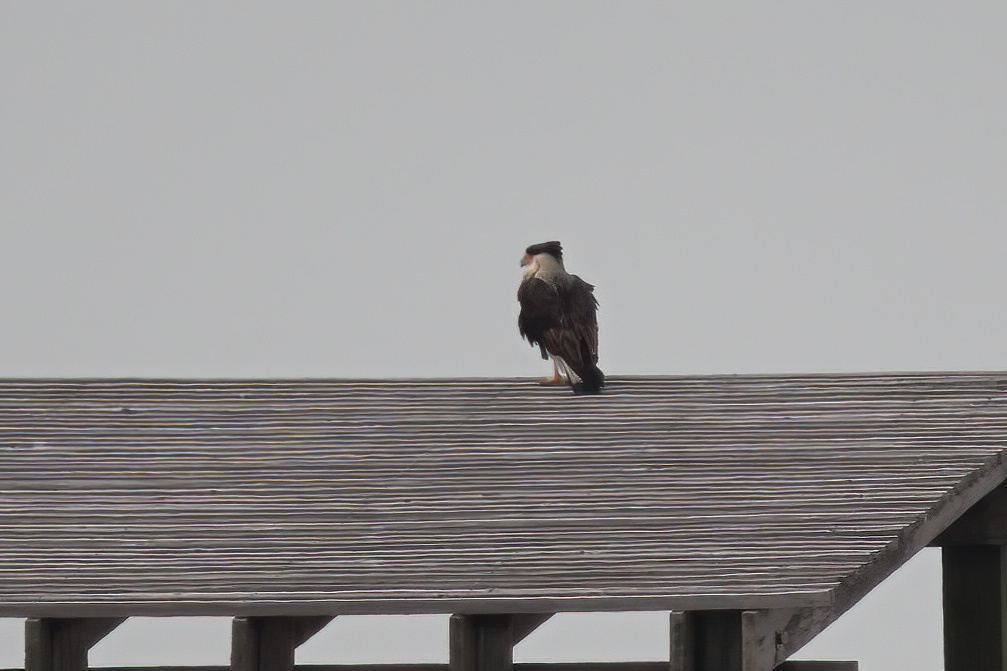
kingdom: Animalia
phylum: Chordata
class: Aves
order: Falconiformes
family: Falconidae
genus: Caracara
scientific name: Caracara plancus
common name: Southern caracara
